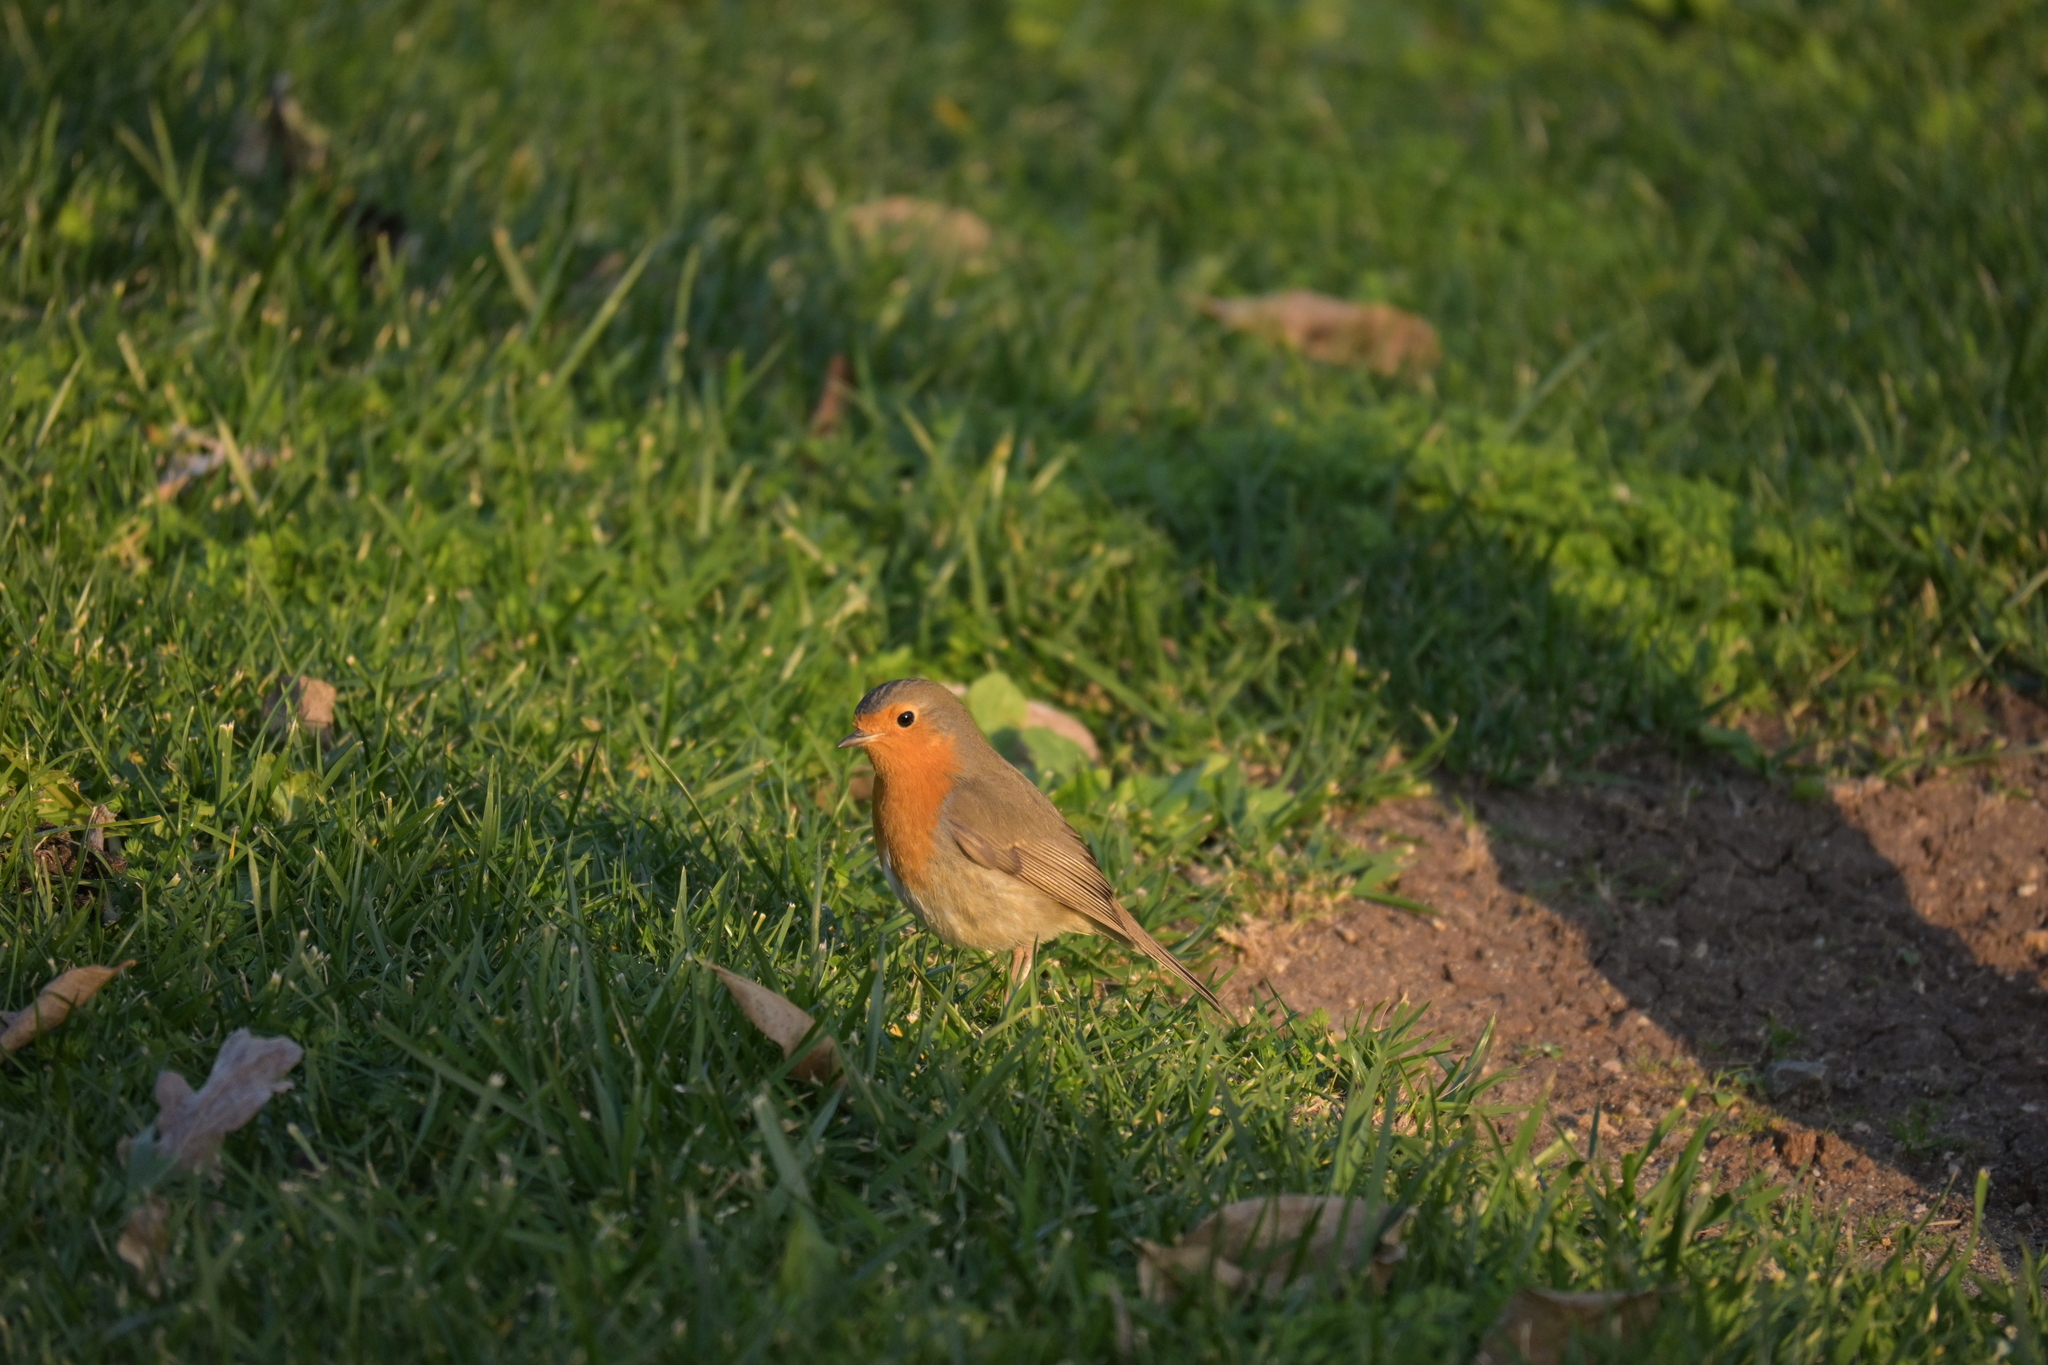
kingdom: Animalia
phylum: Chordata
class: Aves
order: Passeriformes
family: Muscicapidae
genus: Erithacus
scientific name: Erithacus rubecula
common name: European robin
